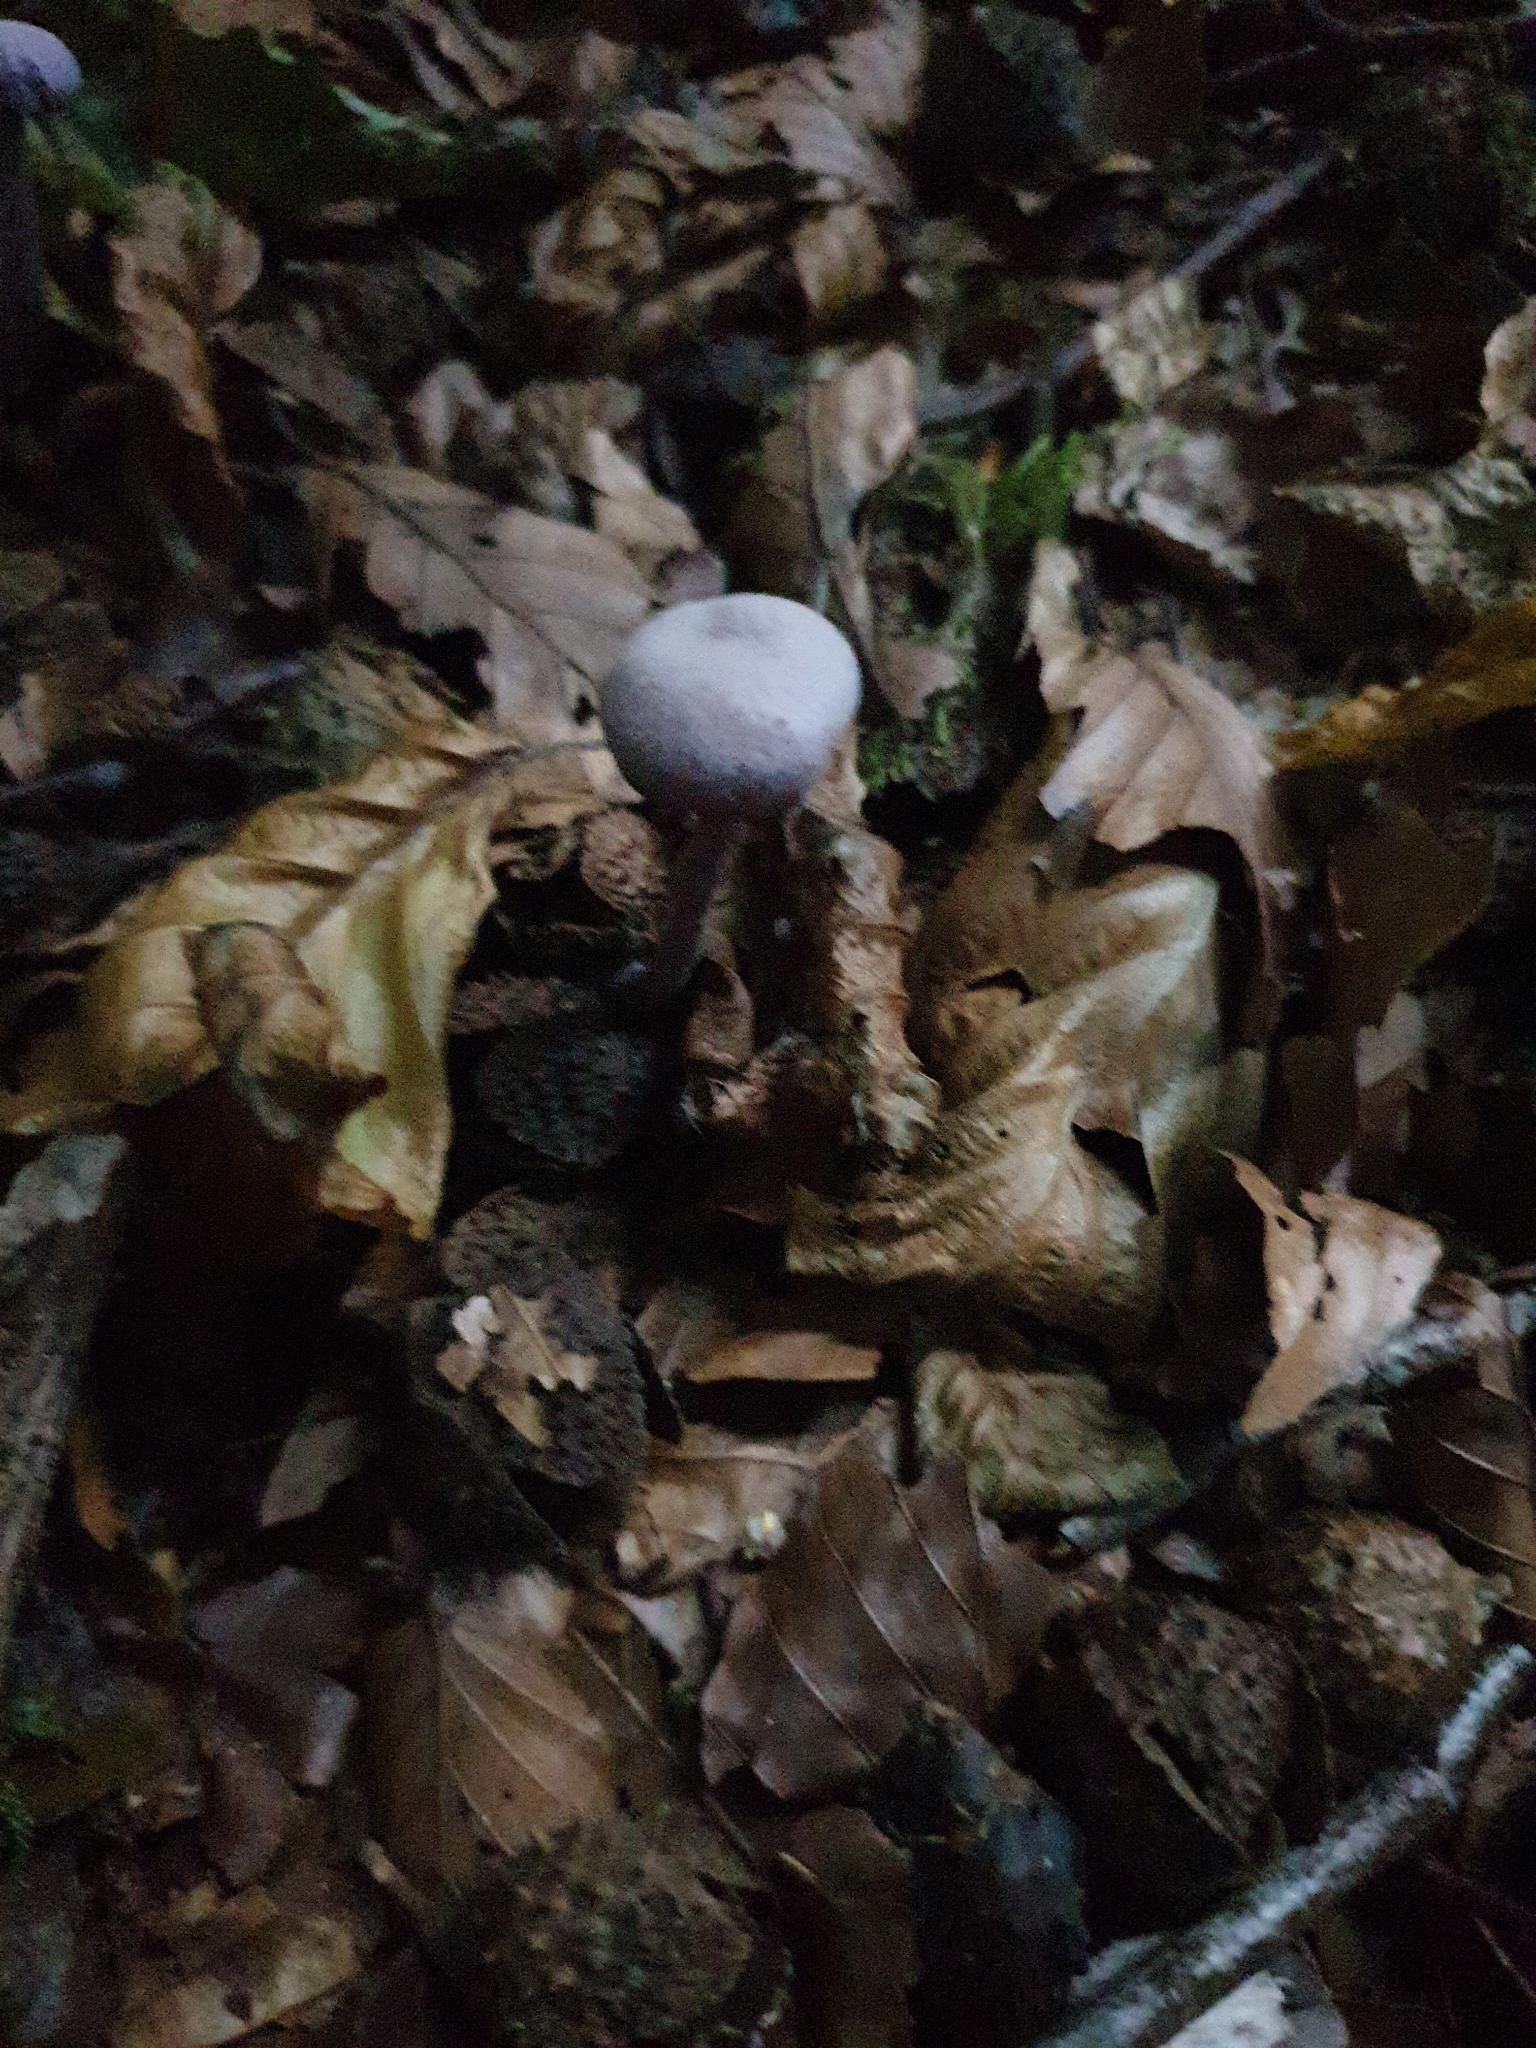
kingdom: Fungi
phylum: Basidiomycota
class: Agaricomycetes
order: Agaricales
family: Hydnangiaceae
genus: Laccaria
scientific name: Laccaria amethystina
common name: Amethyst deceiver
